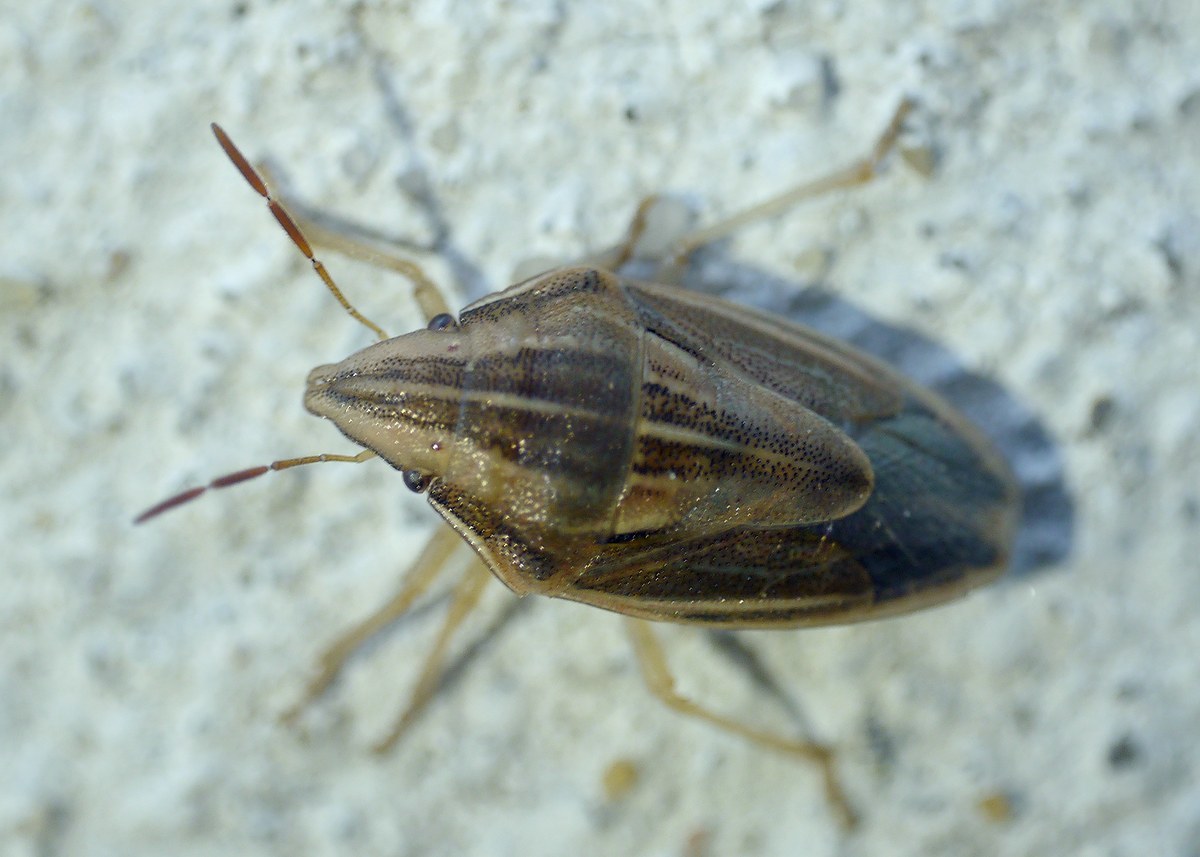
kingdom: Animalia
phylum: Arthropoda
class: Insecta
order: Hemiptera
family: Pentatomidae
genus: Aelia
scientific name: Aelia acuminata
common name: Bishop's mitre
